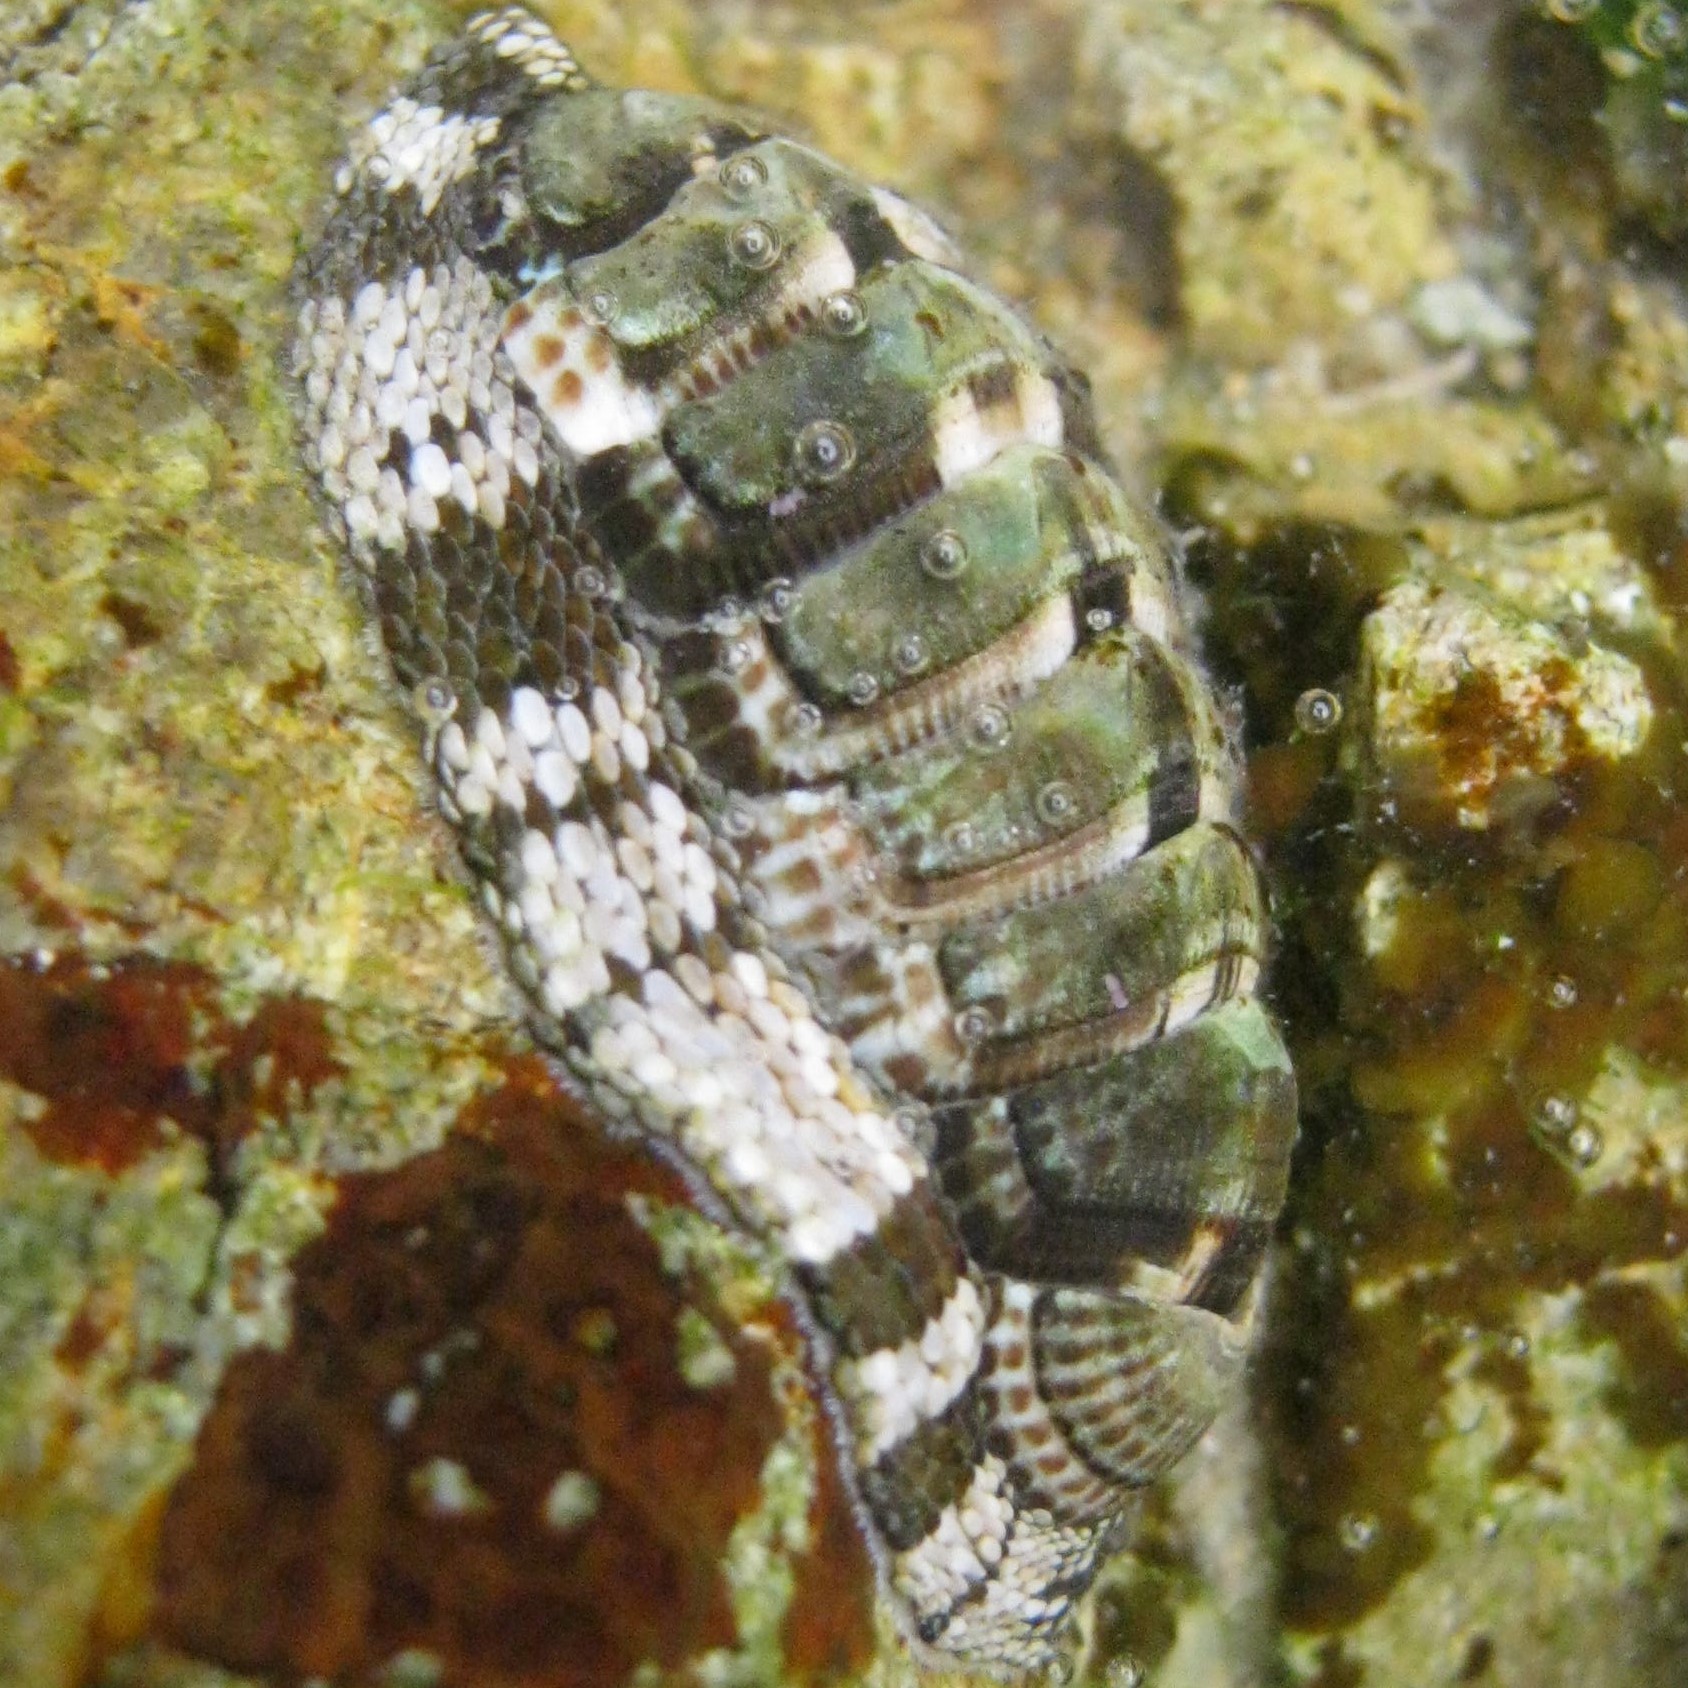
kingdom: Animalia
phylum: Mollusca
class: Polyplacophora
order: Chitonida
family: Chitonidae
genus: Sypharochiton
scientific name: Sypharochiton pelliserpentis
